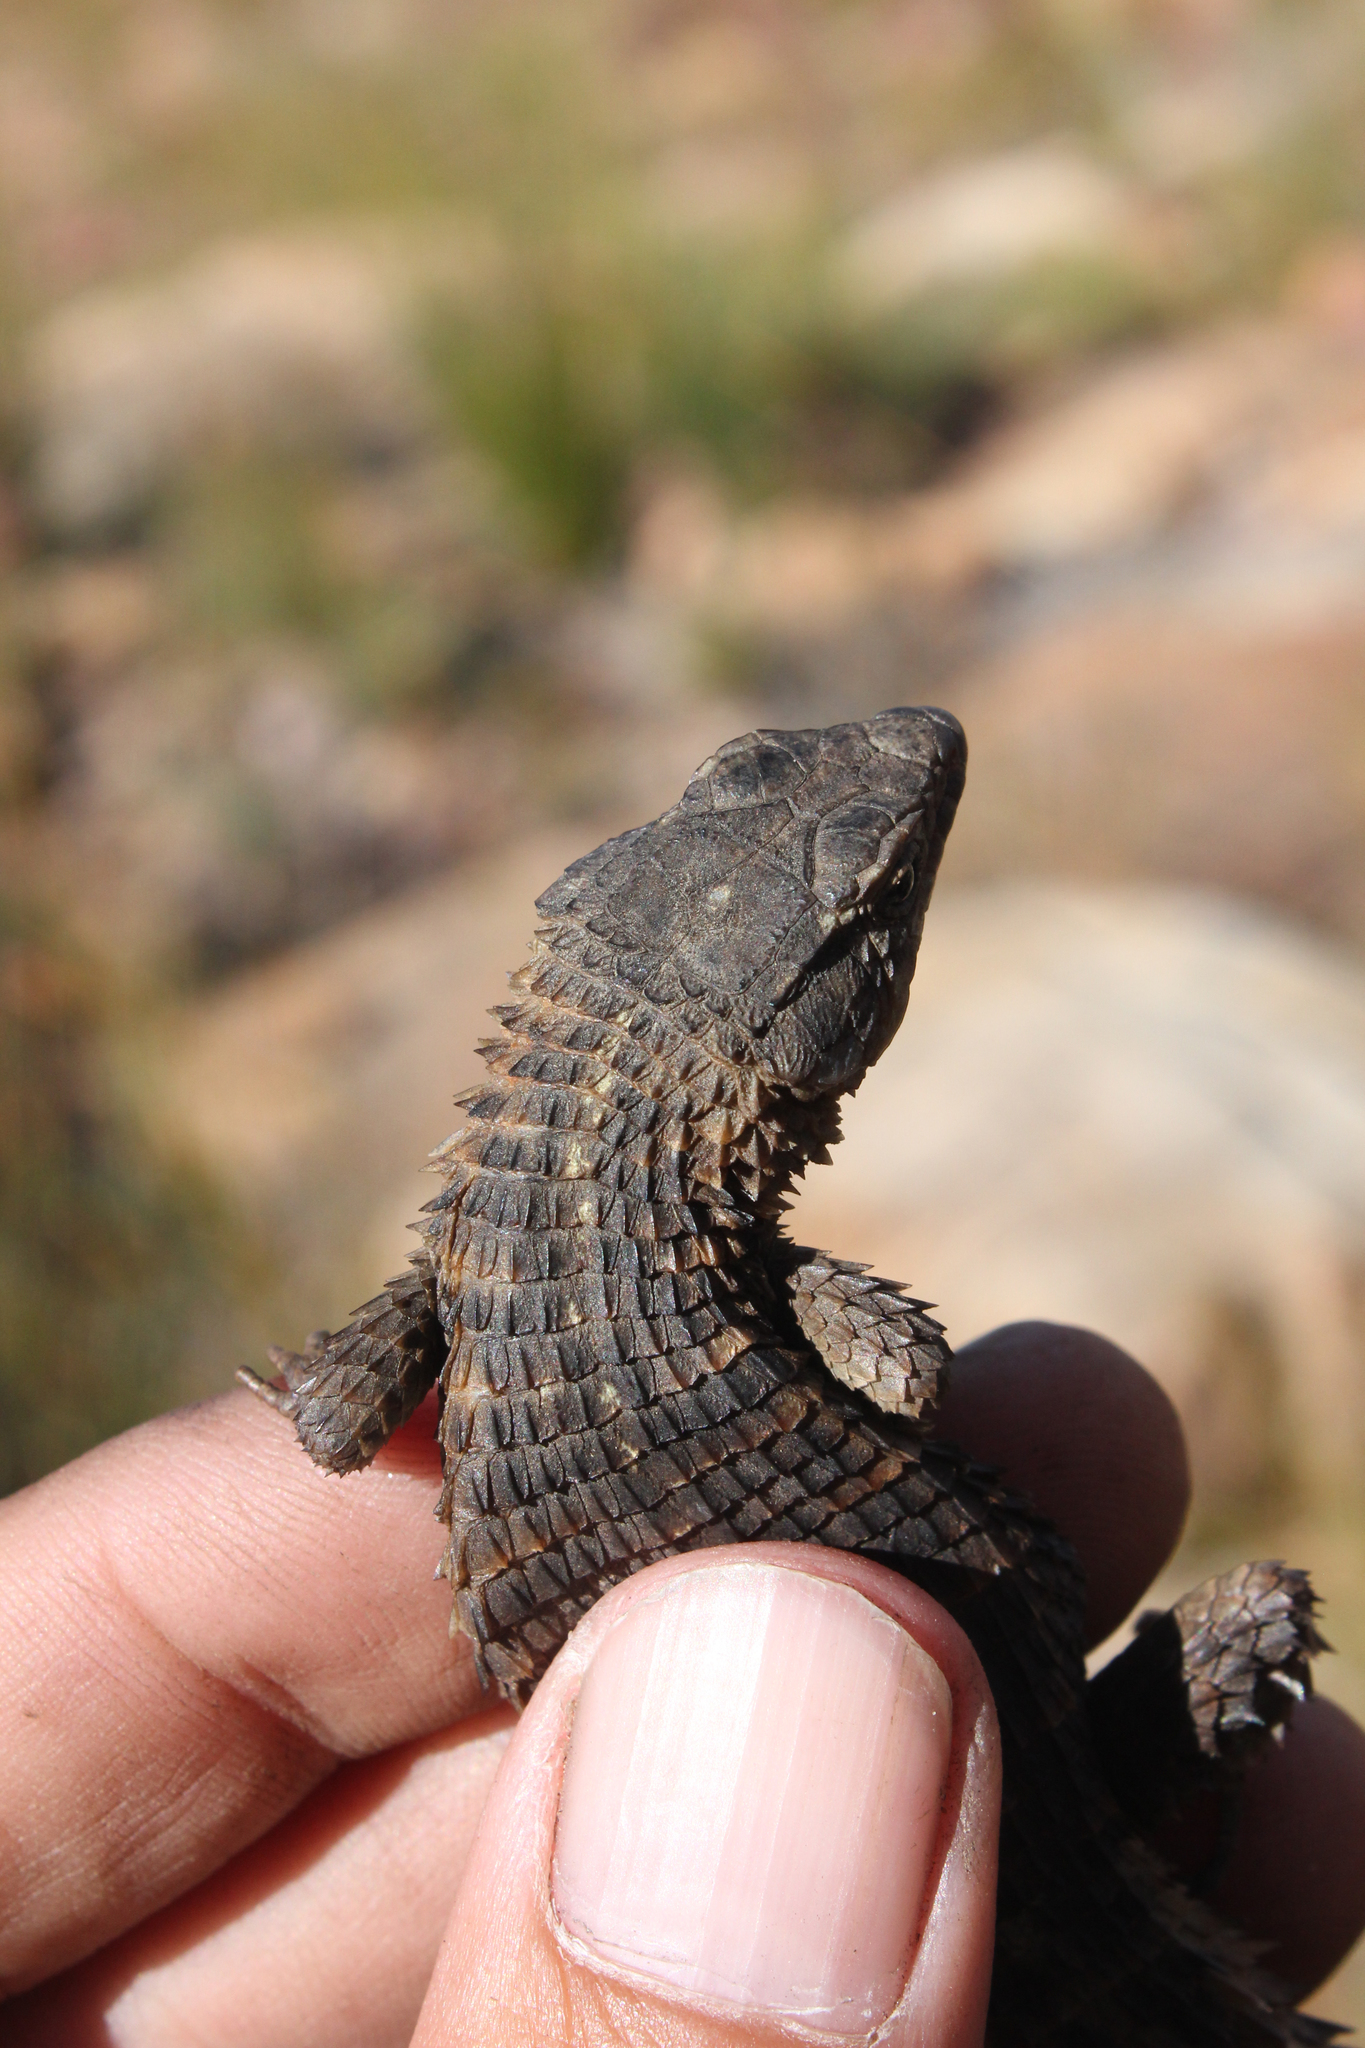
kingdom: Animalia
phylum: Chordata
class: Squamata
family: Cordylidae
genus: Cordylus
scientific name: Cordylus cordylus
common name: Cape girdled lizard
